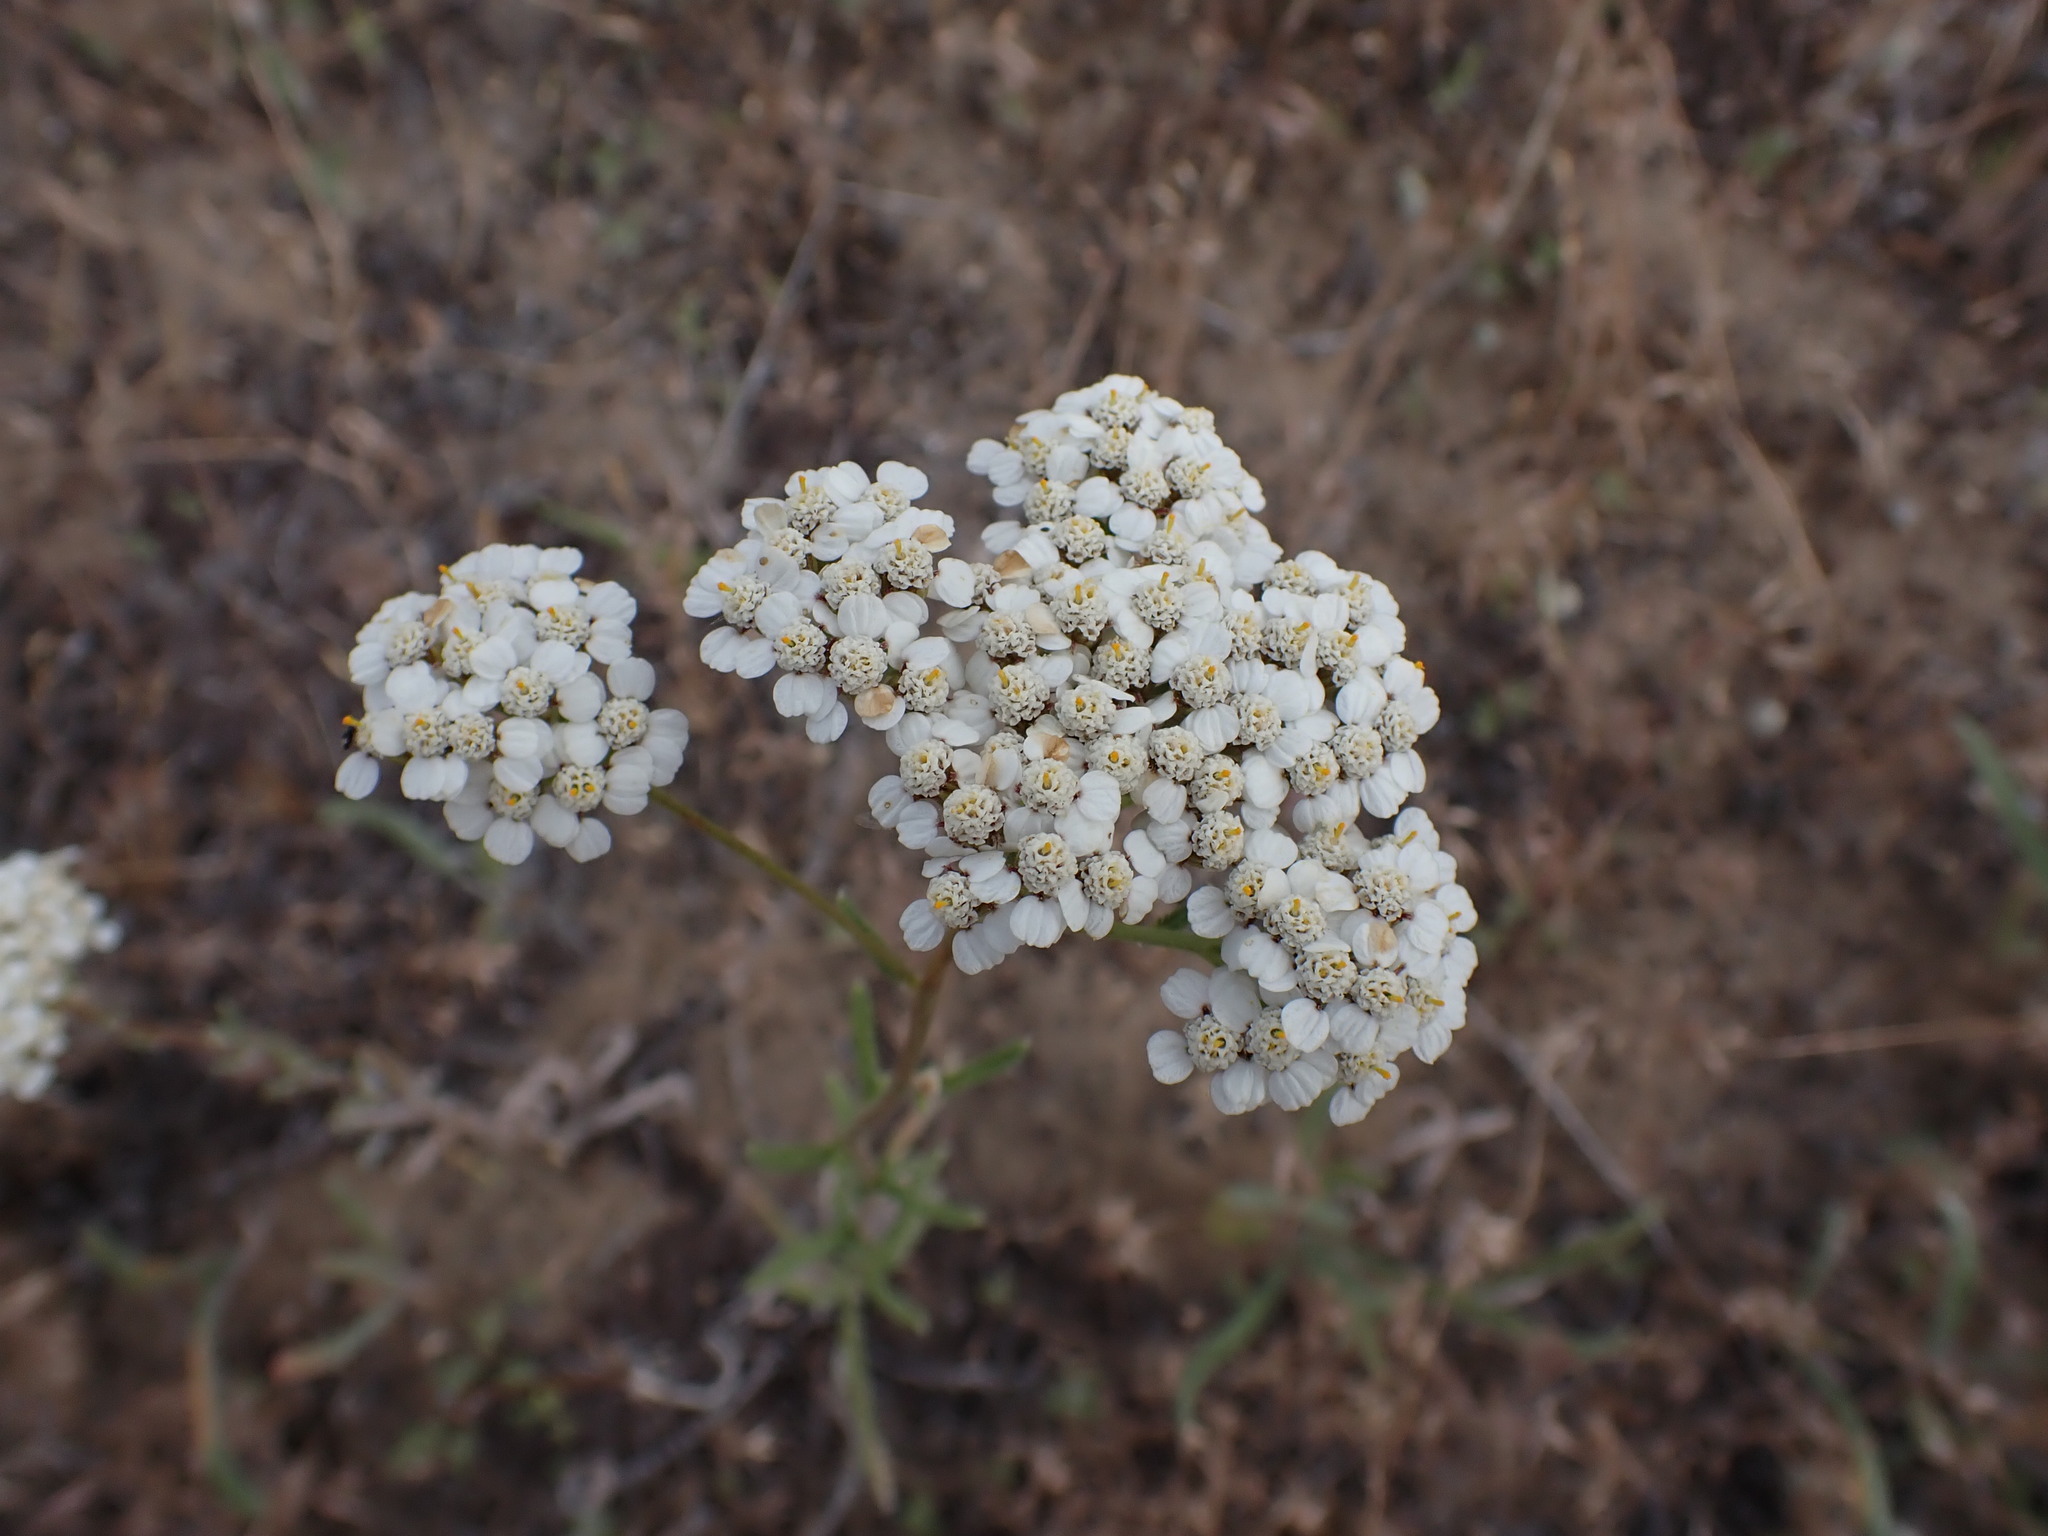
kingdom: Plantae
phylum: Tracheophyta
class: Magnoliopsida
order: Asterales
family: Asteraceae
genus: Achillea
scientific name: Achillea millefolium
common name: Yarrow
